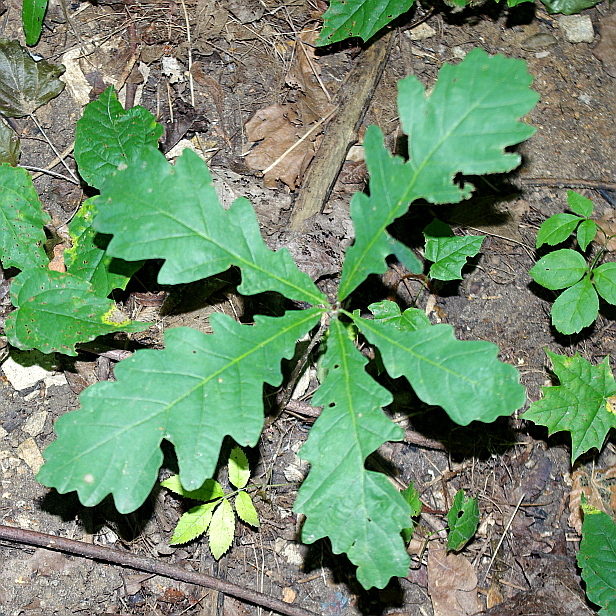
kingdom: Plantae
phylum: Tracheophyta
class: Magnoliopsida
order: Fagales
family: Fagaceae
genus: Quercus
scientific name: Quercus robur
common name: Pedunculate oak
